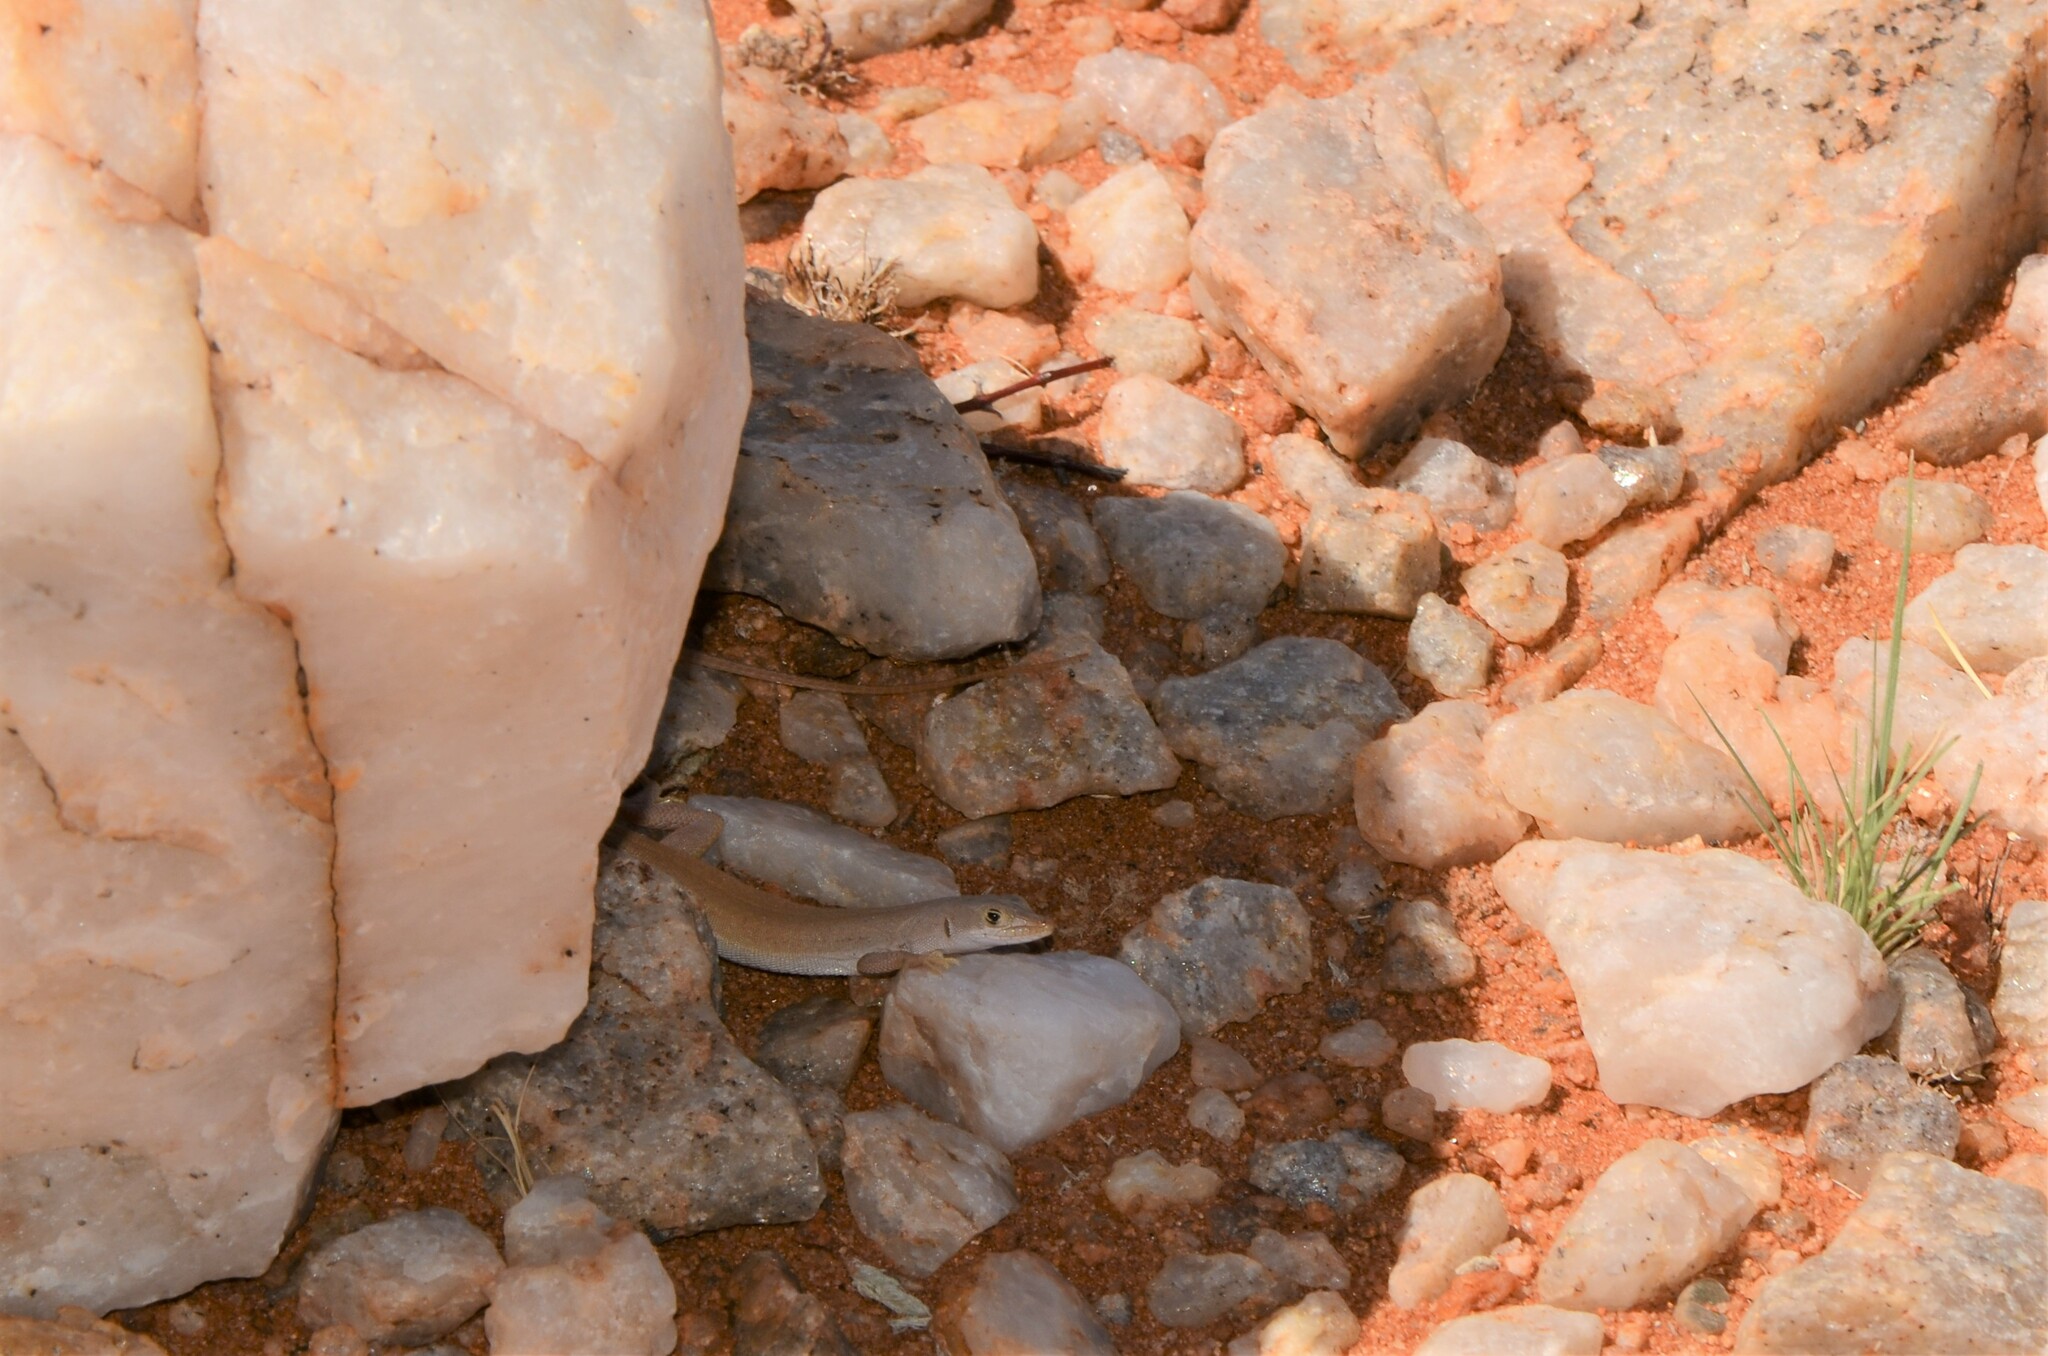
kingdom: Animalia
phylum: Chordata
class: Squamata
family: Lacertidae
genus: Pedioplanis
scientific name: Pedioplanis inornata
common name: Plain sand lizard
